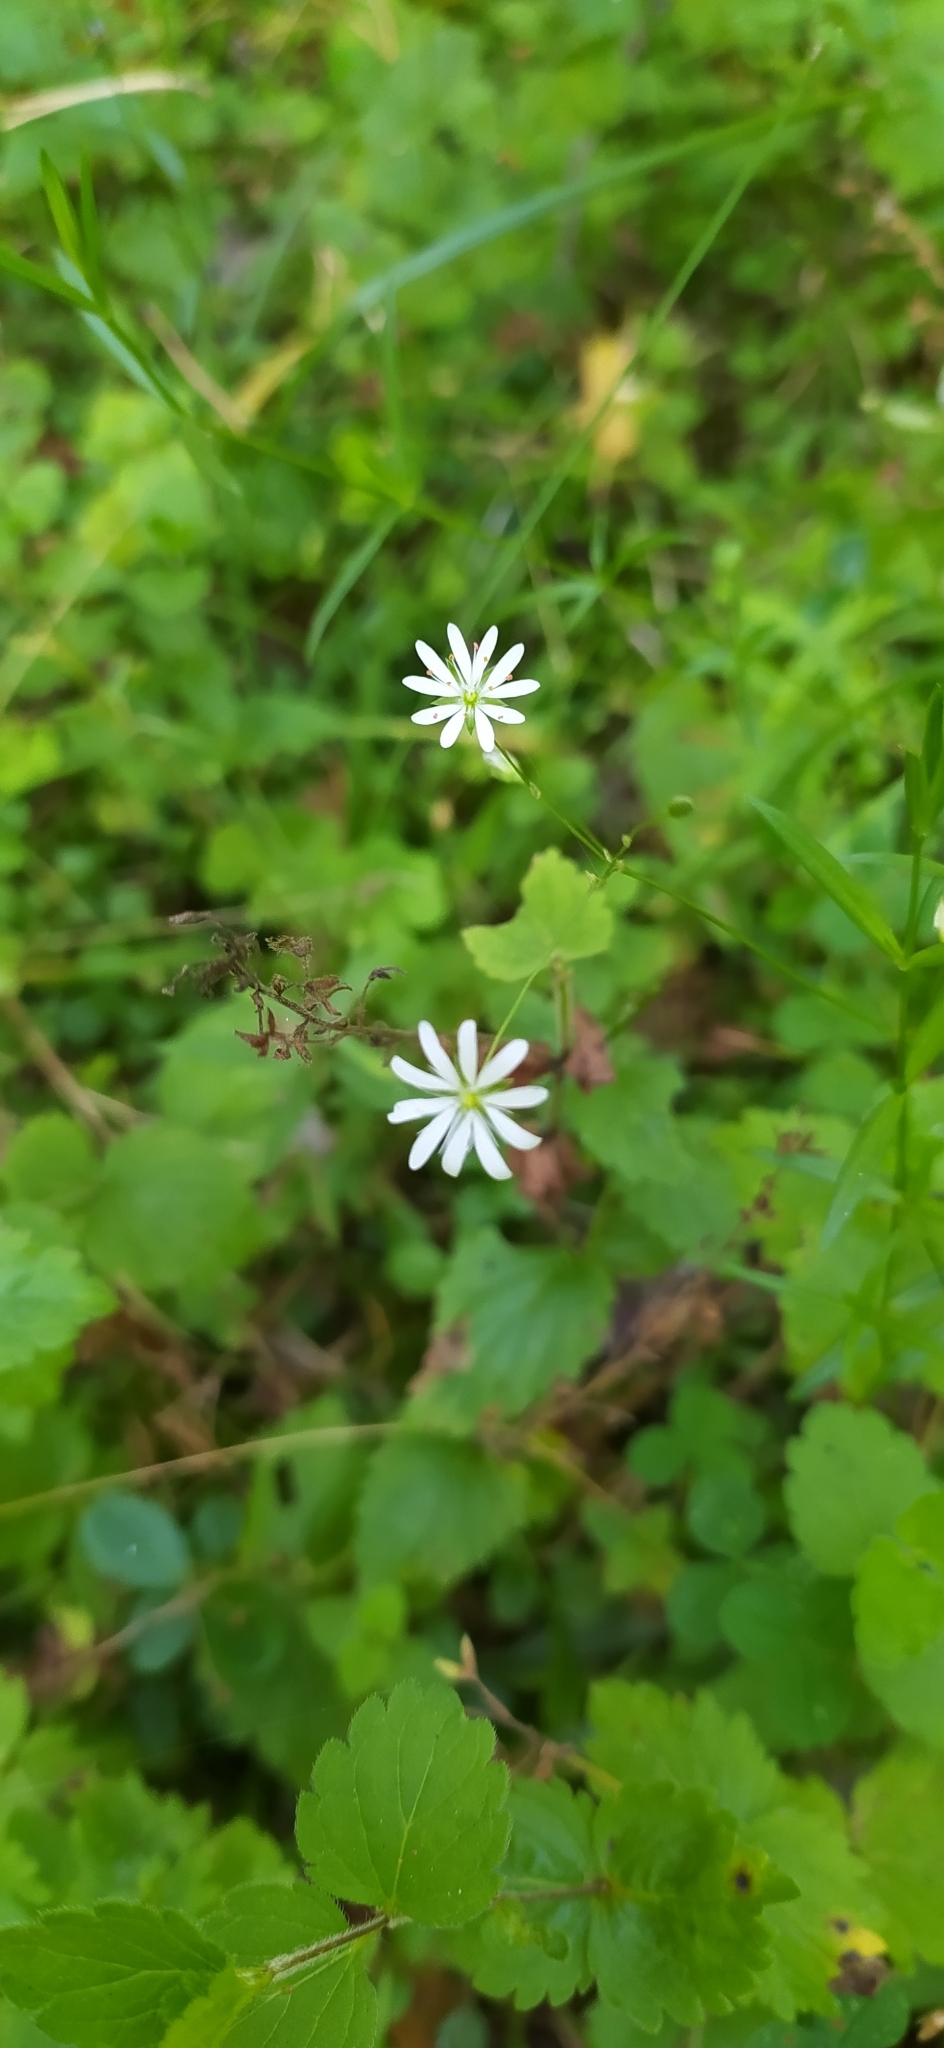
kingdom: Plantae
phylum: Tracheophyta
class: Magnoliopsida
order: Caryophyllales
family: Caryophyllaceae
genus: Stellaria
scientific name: Stellaria graminea
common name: Grass-like starwort
